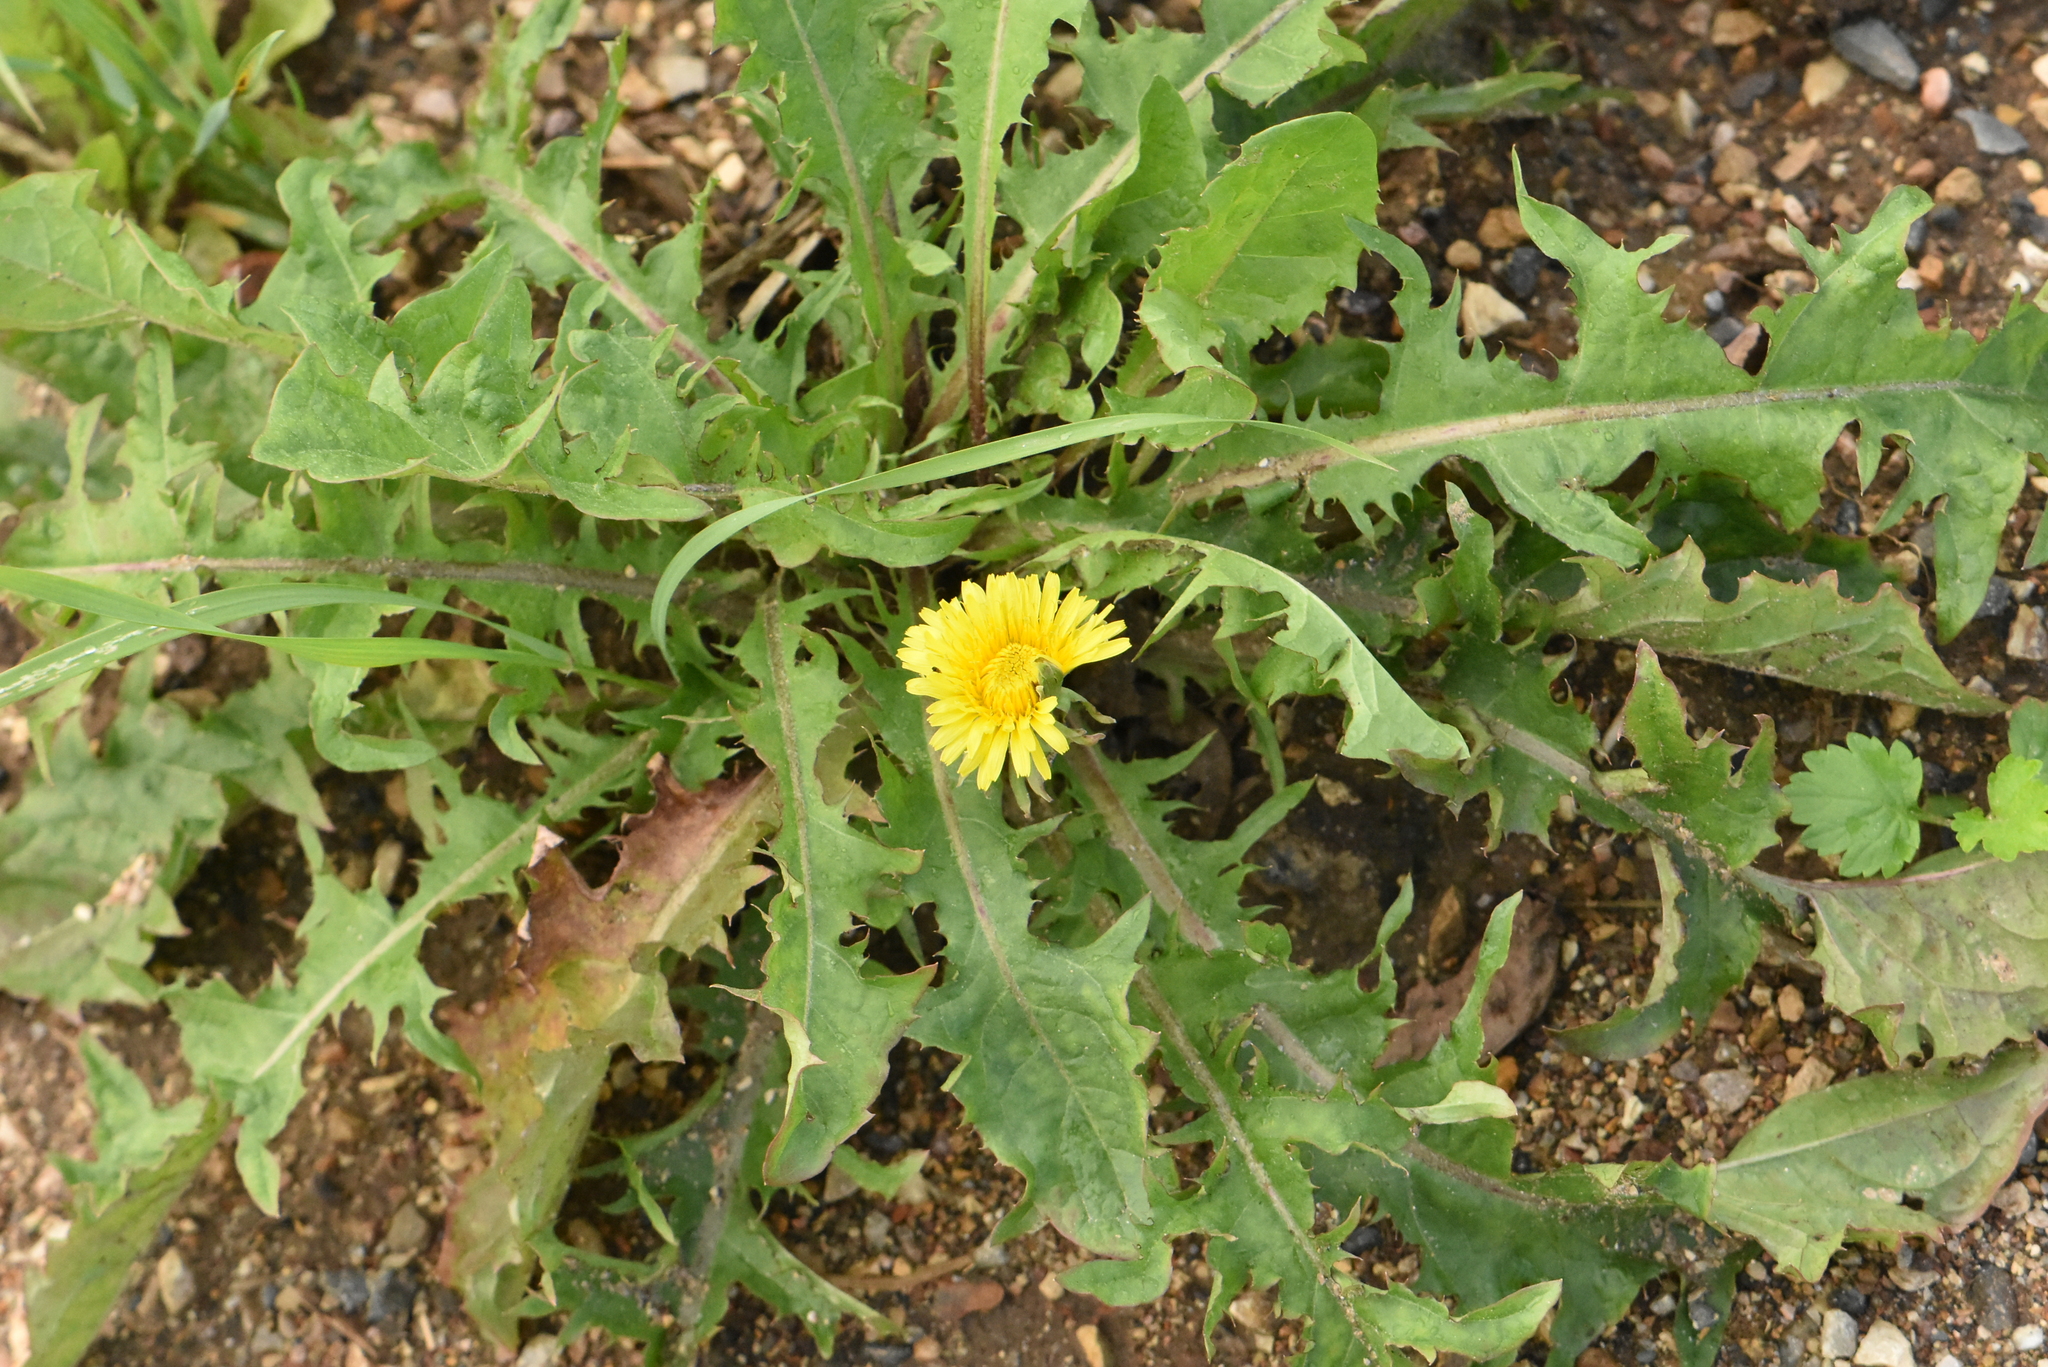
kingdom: Plantae
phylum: Tracheophyta
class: Magnoliopsida
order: Asterales
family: Asteraceae
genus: Taraxacum
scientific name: Taraxacum officinale
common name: Common dandelion
